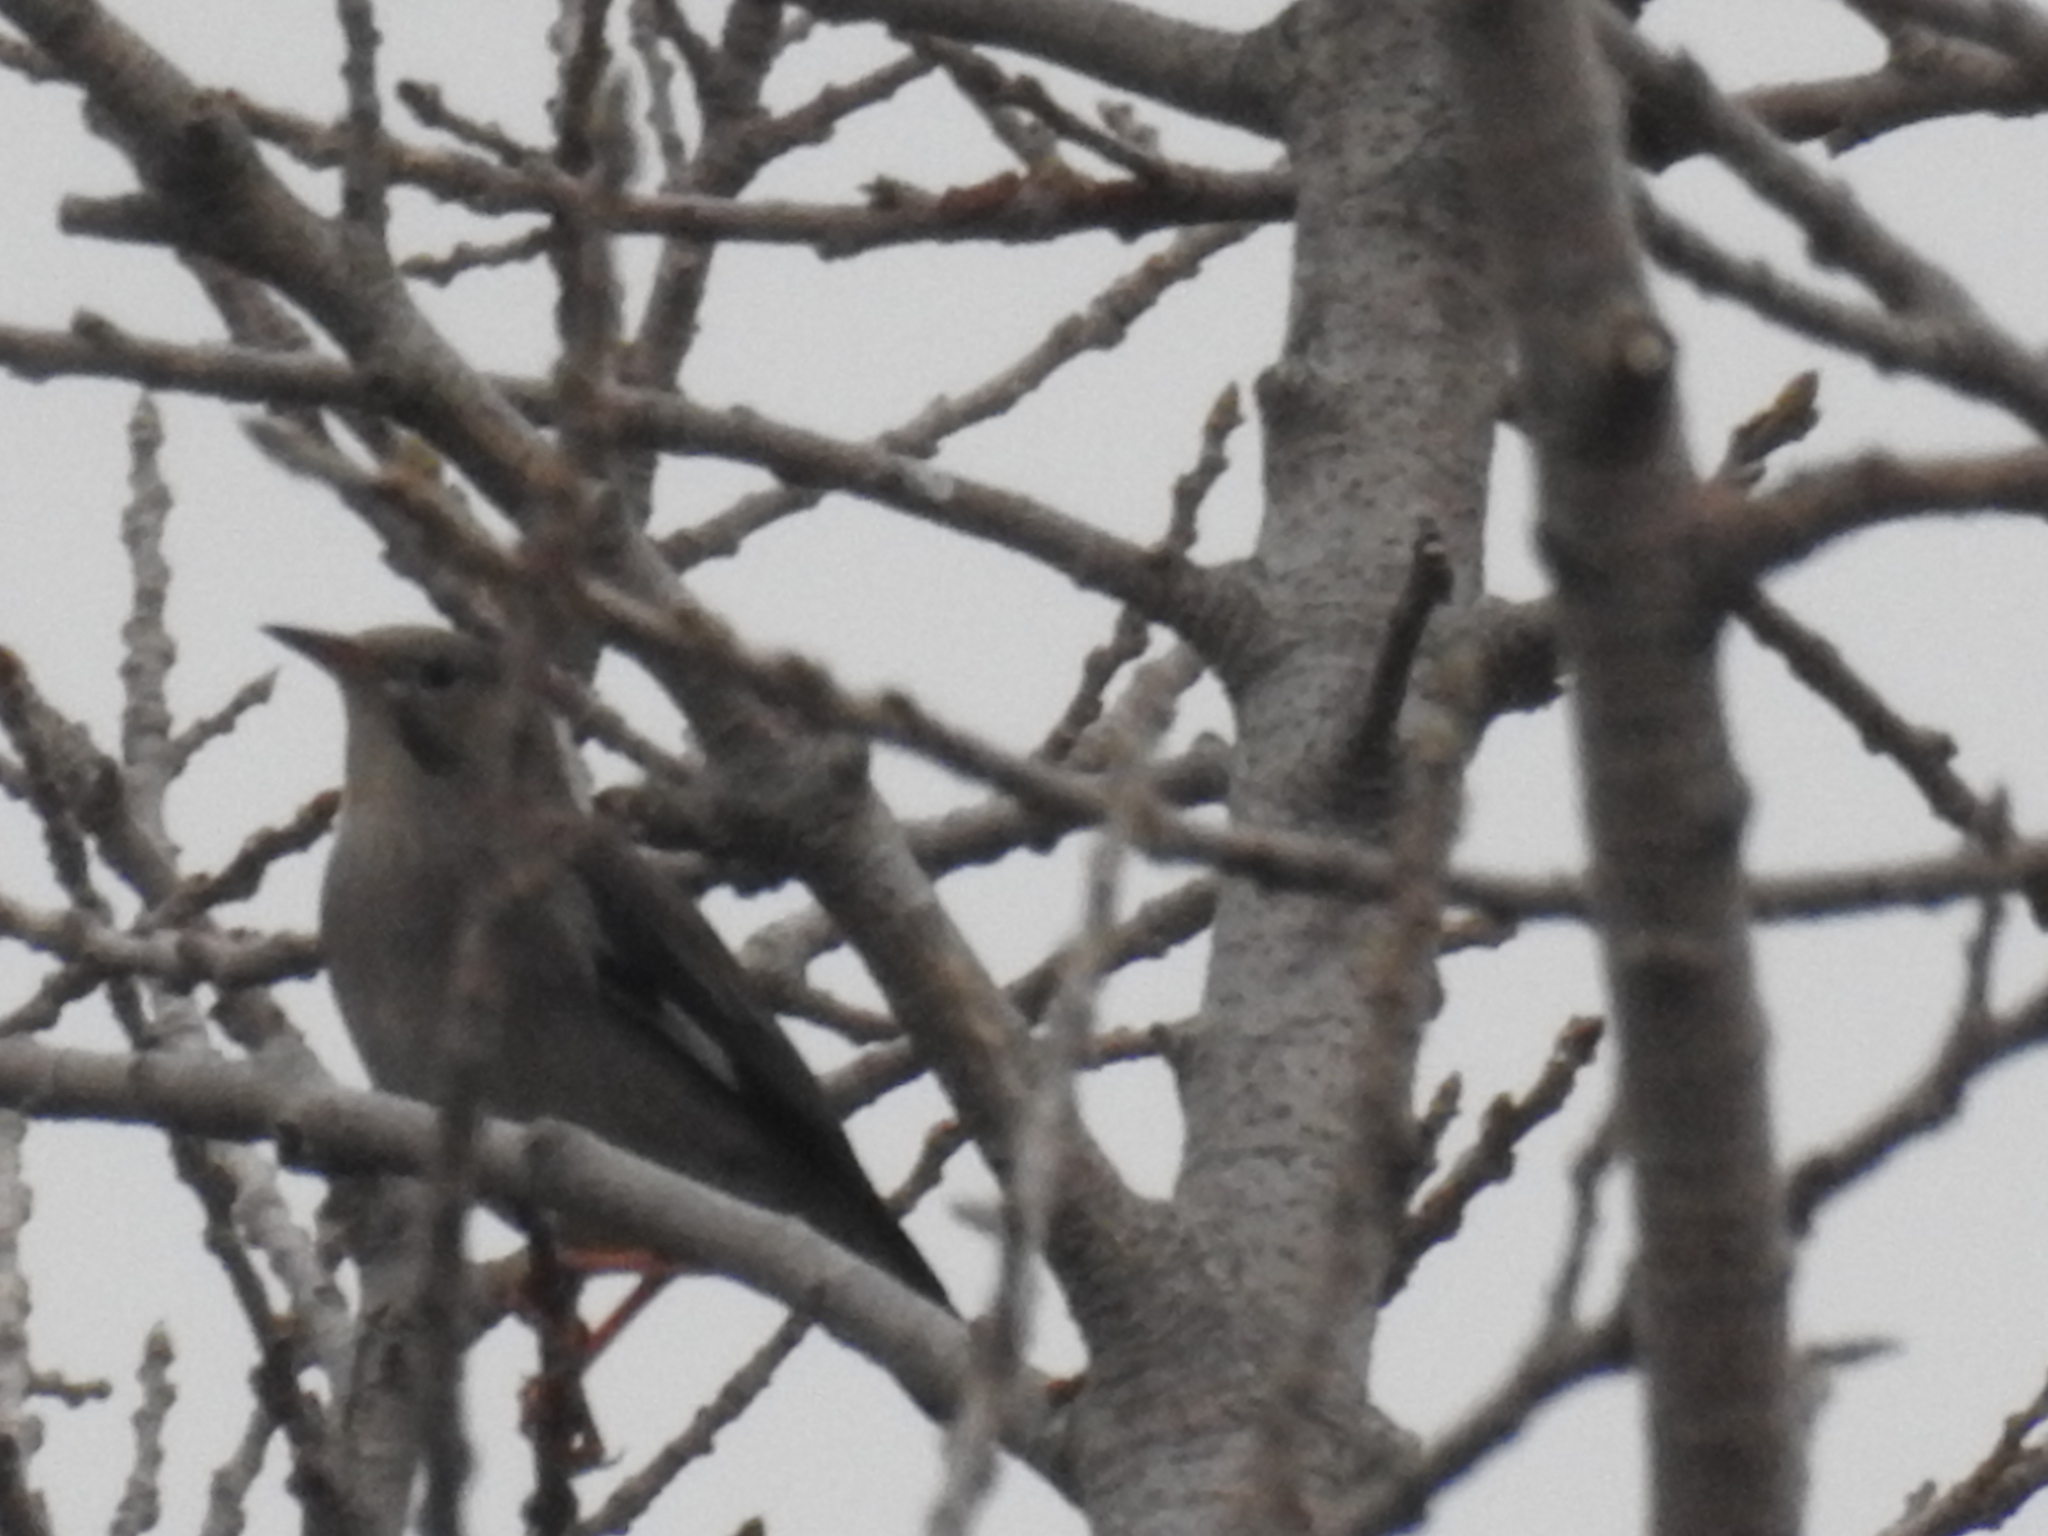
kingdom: Animalia
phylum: Chordata
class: Aves
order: Passeriformes
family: Sturnidae
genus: Spodiopsar
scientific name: Spodiopsar sericeus
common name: Red-billed starling
